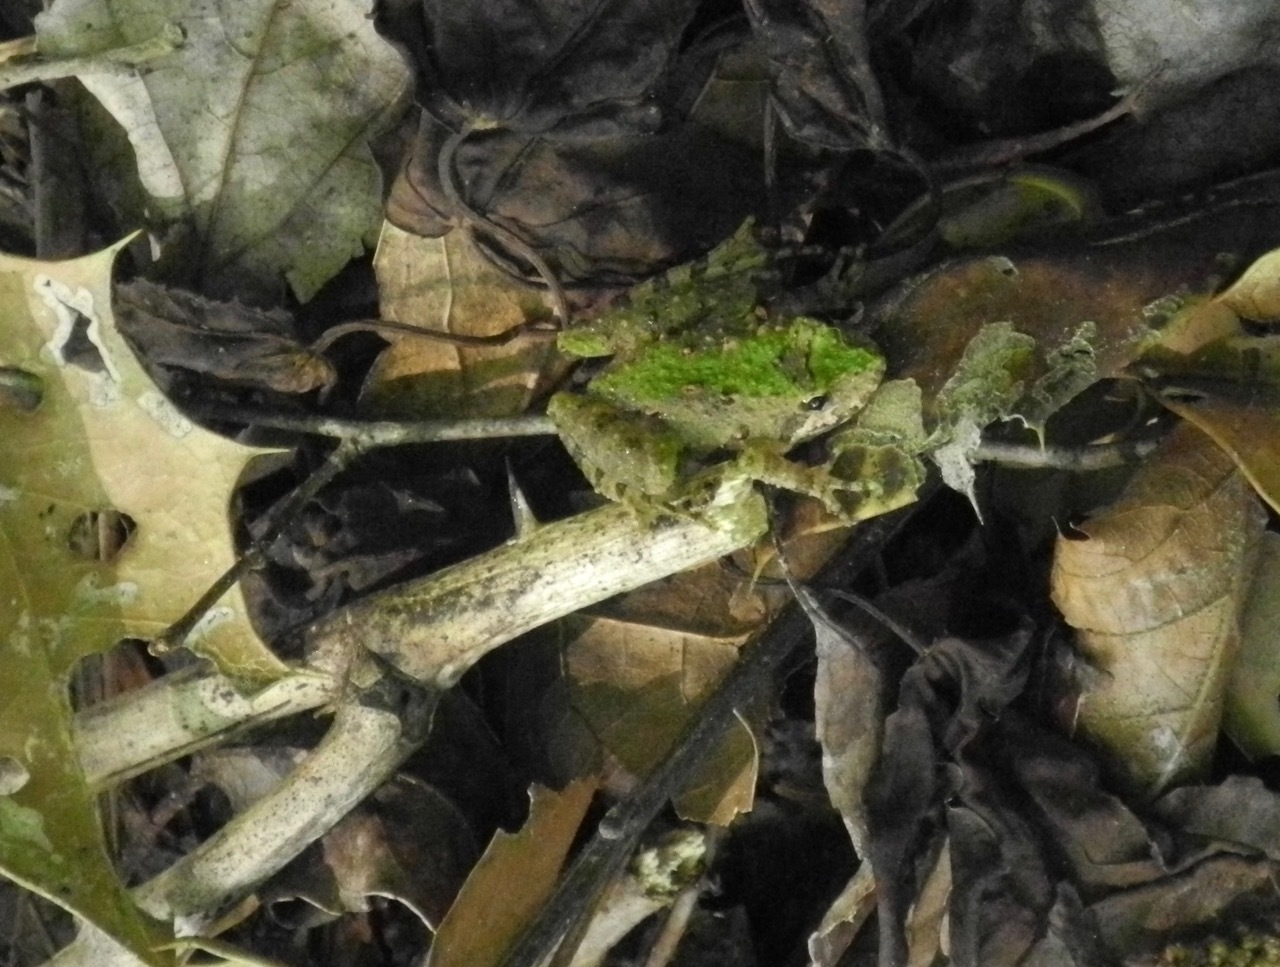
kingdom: Animalia
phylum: Chordata
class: Amphibia
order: Anura
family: Hylidae
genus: Acris
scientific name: Acris crepitans
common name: Northern cricket frog
